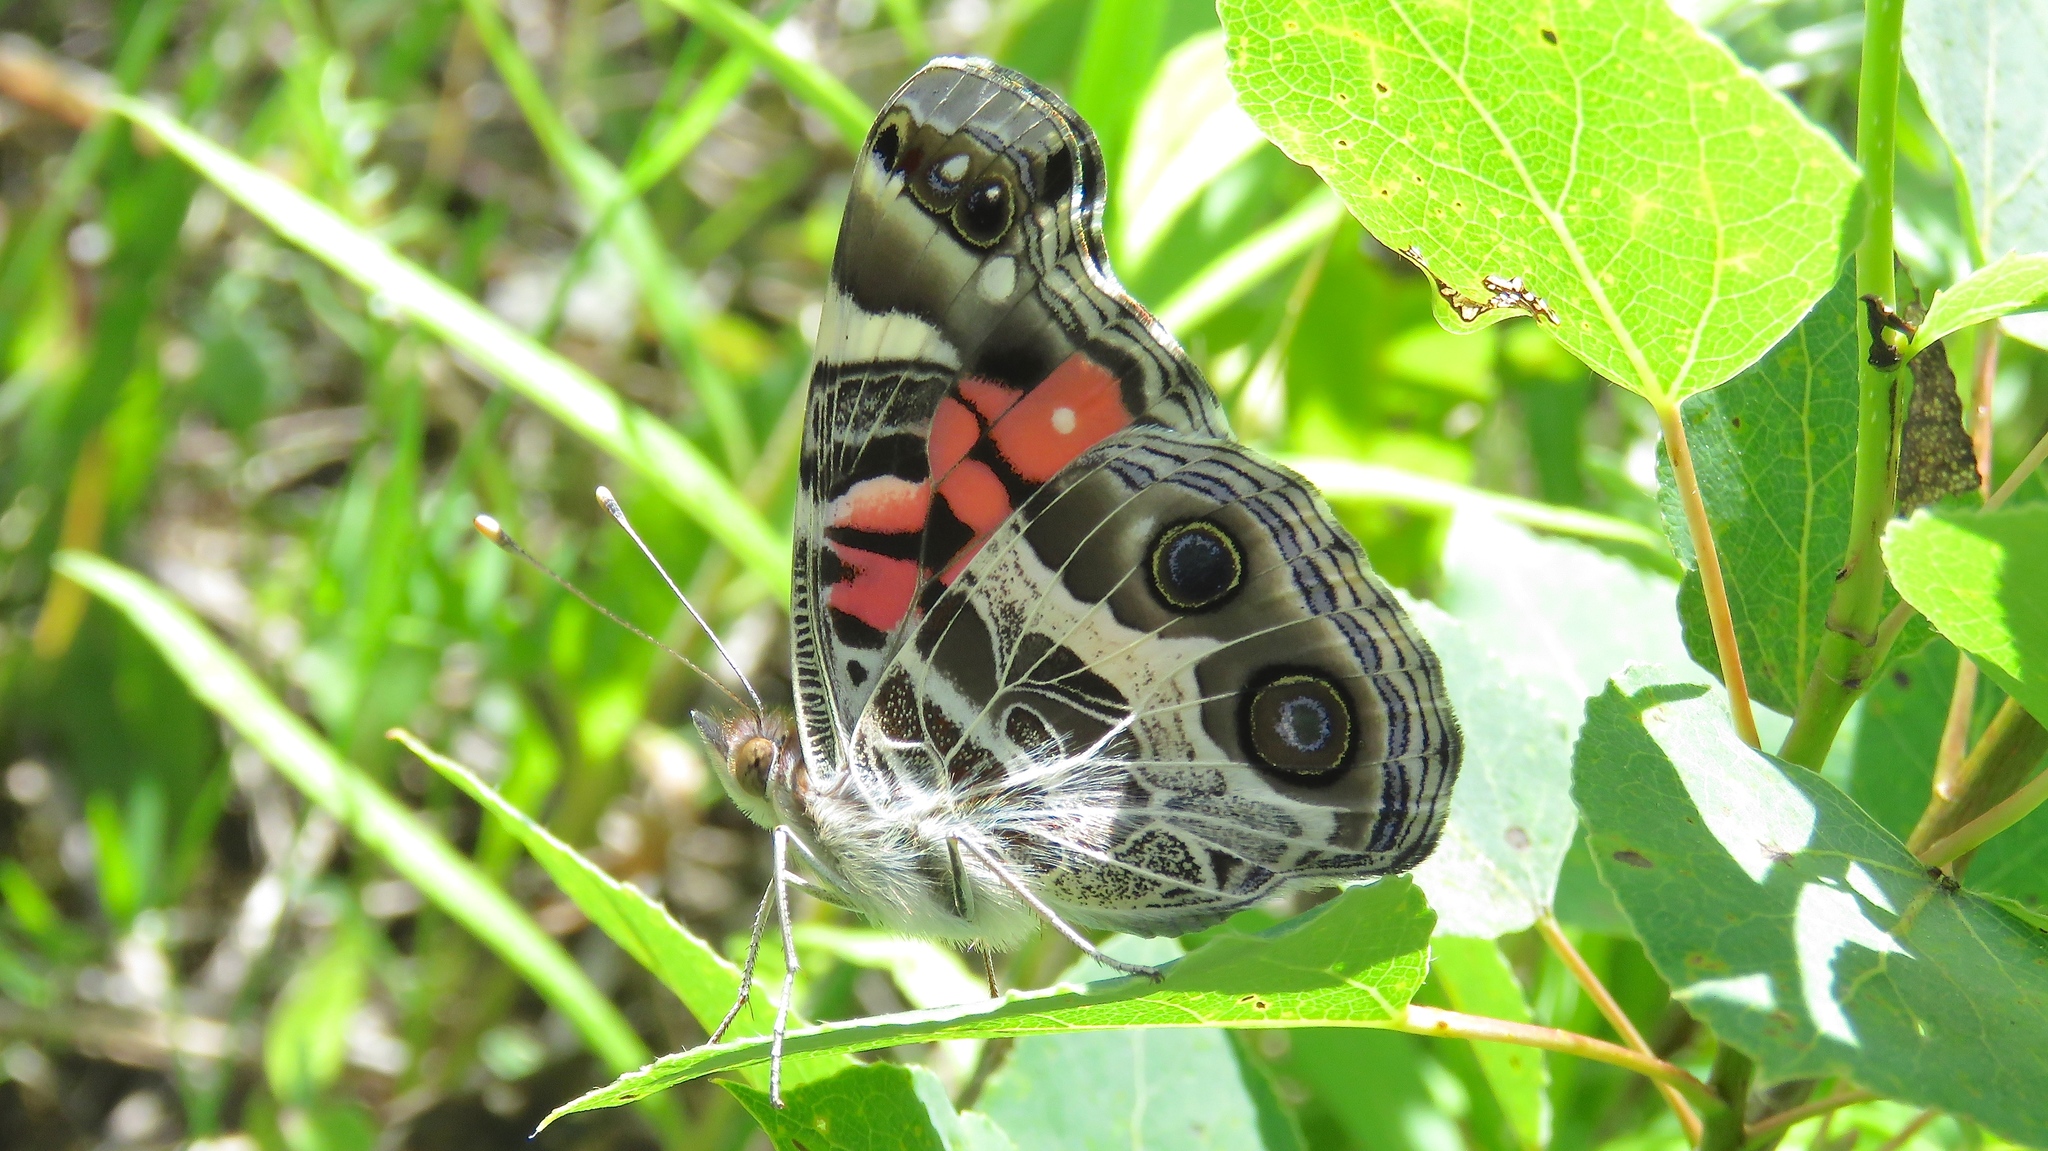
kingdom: Animalia
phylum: Arthropoda
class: Insecta
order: Lepidoptera
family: Nymphalidae
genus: Vanessa
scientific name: Vanessa virginiensis
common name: American lady
